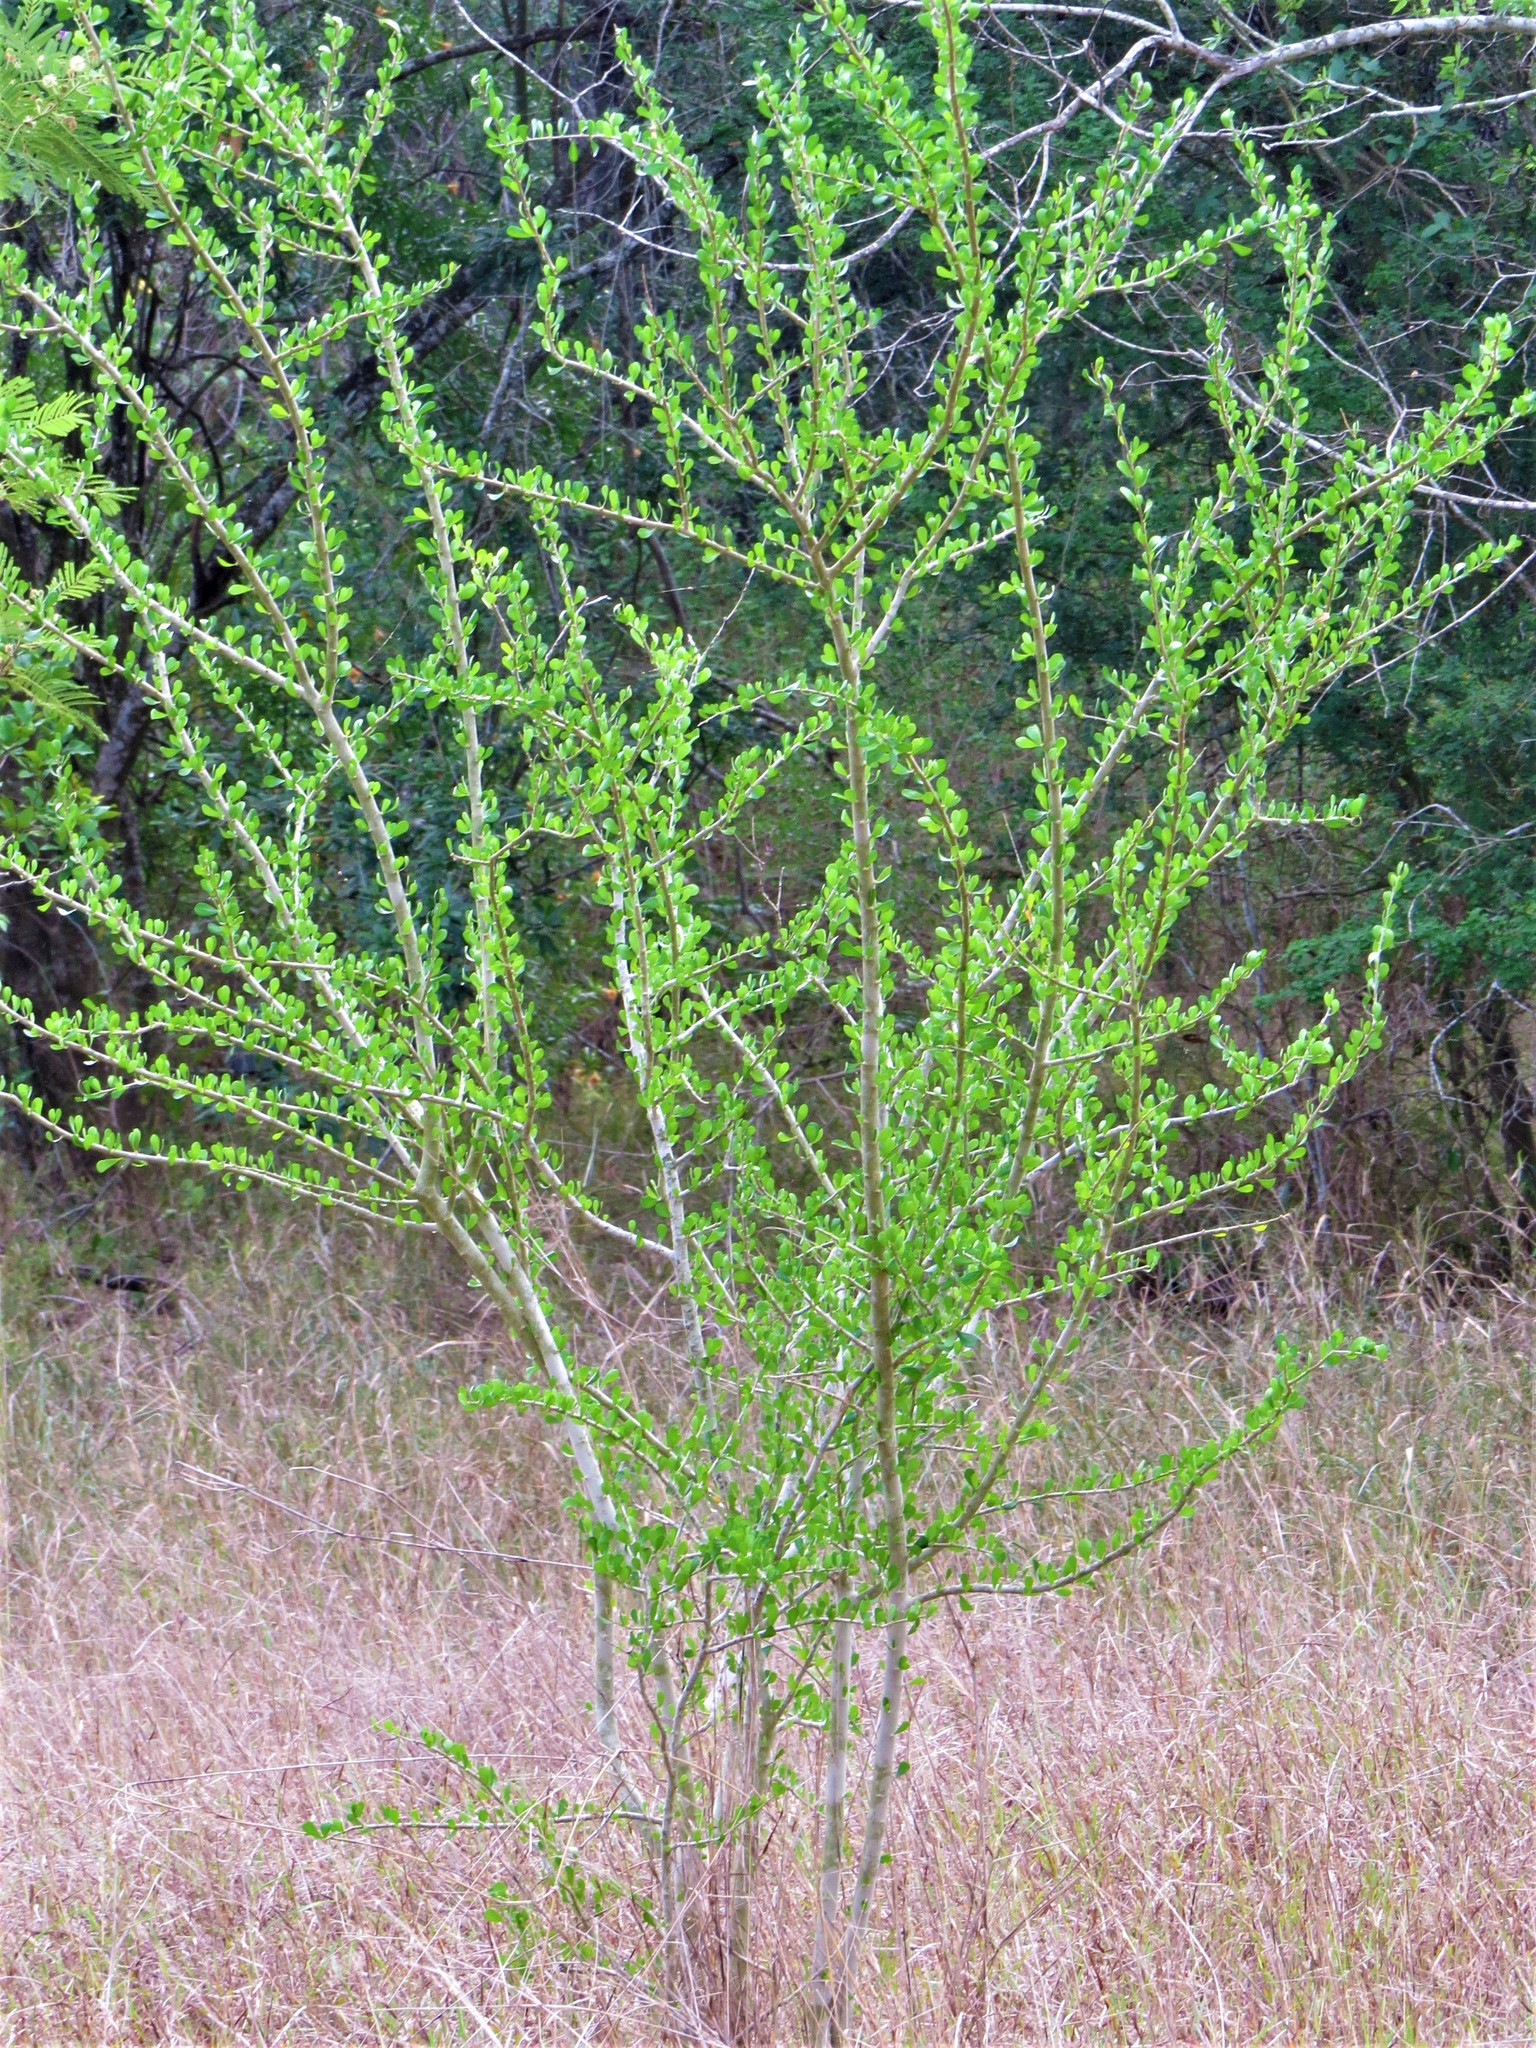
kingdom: Plantae
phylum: Tracheophyta
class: Magnoliopsida
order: Malpighiales
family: Euphorbiaceae
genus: Adelia
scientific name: Adelia vaseyi
